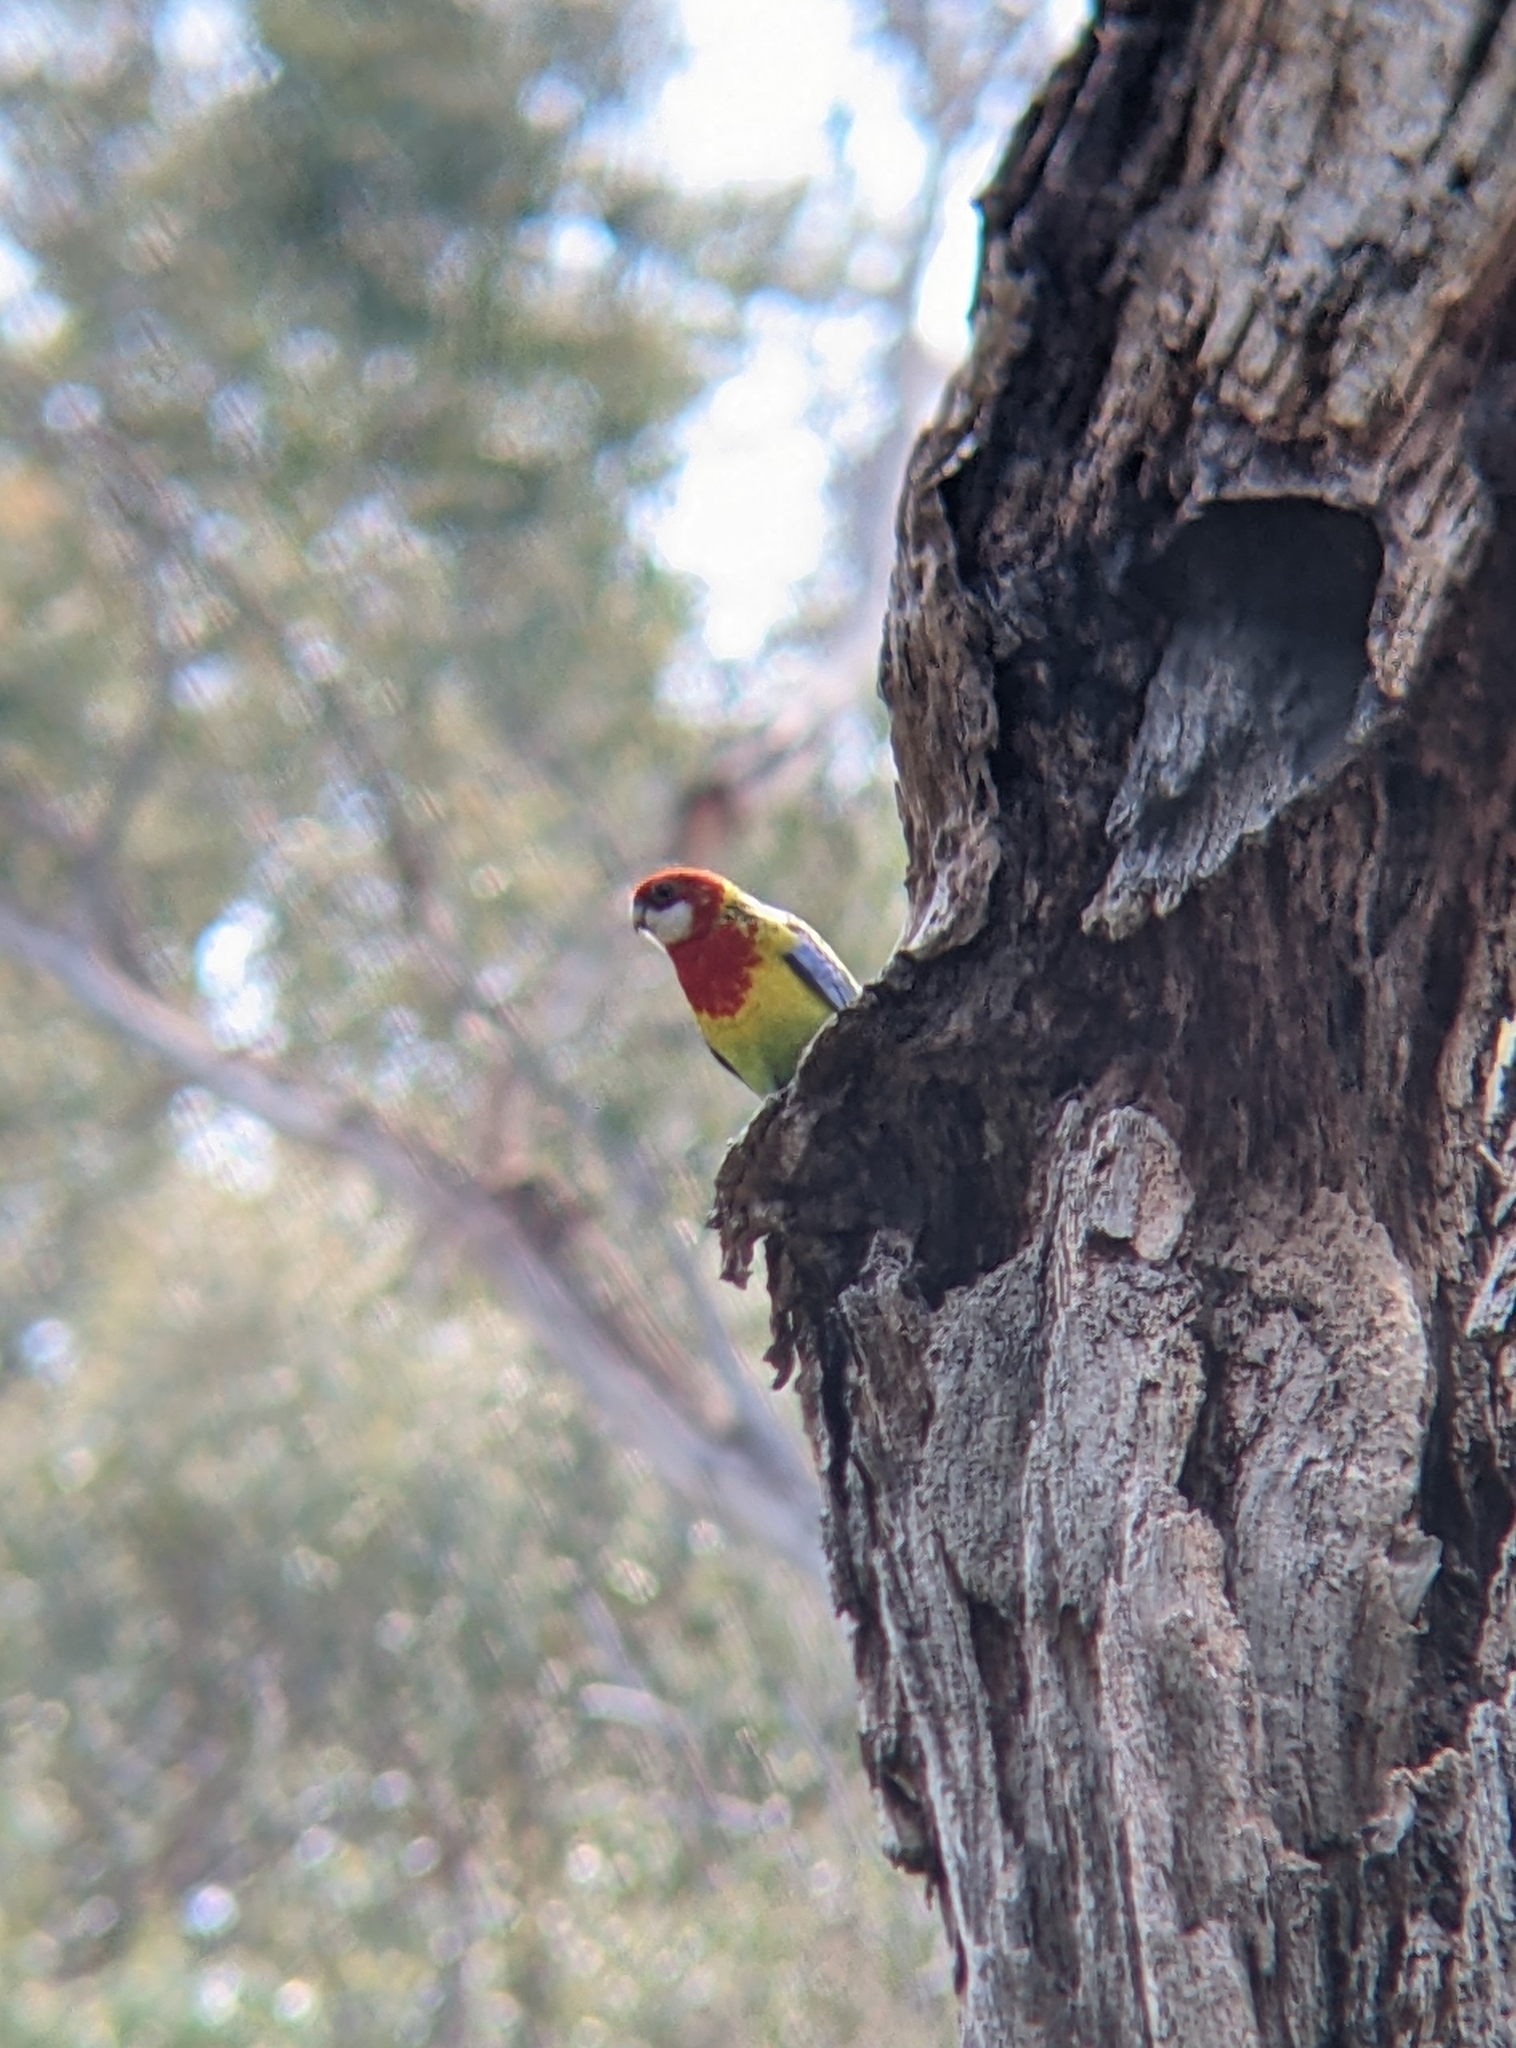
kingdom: Animalia
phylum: Chordata
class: Aves
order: Psittaciformes
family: Psittacidae
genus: Platycercus
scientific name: Platycercus eximius
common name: Eastern rosella
